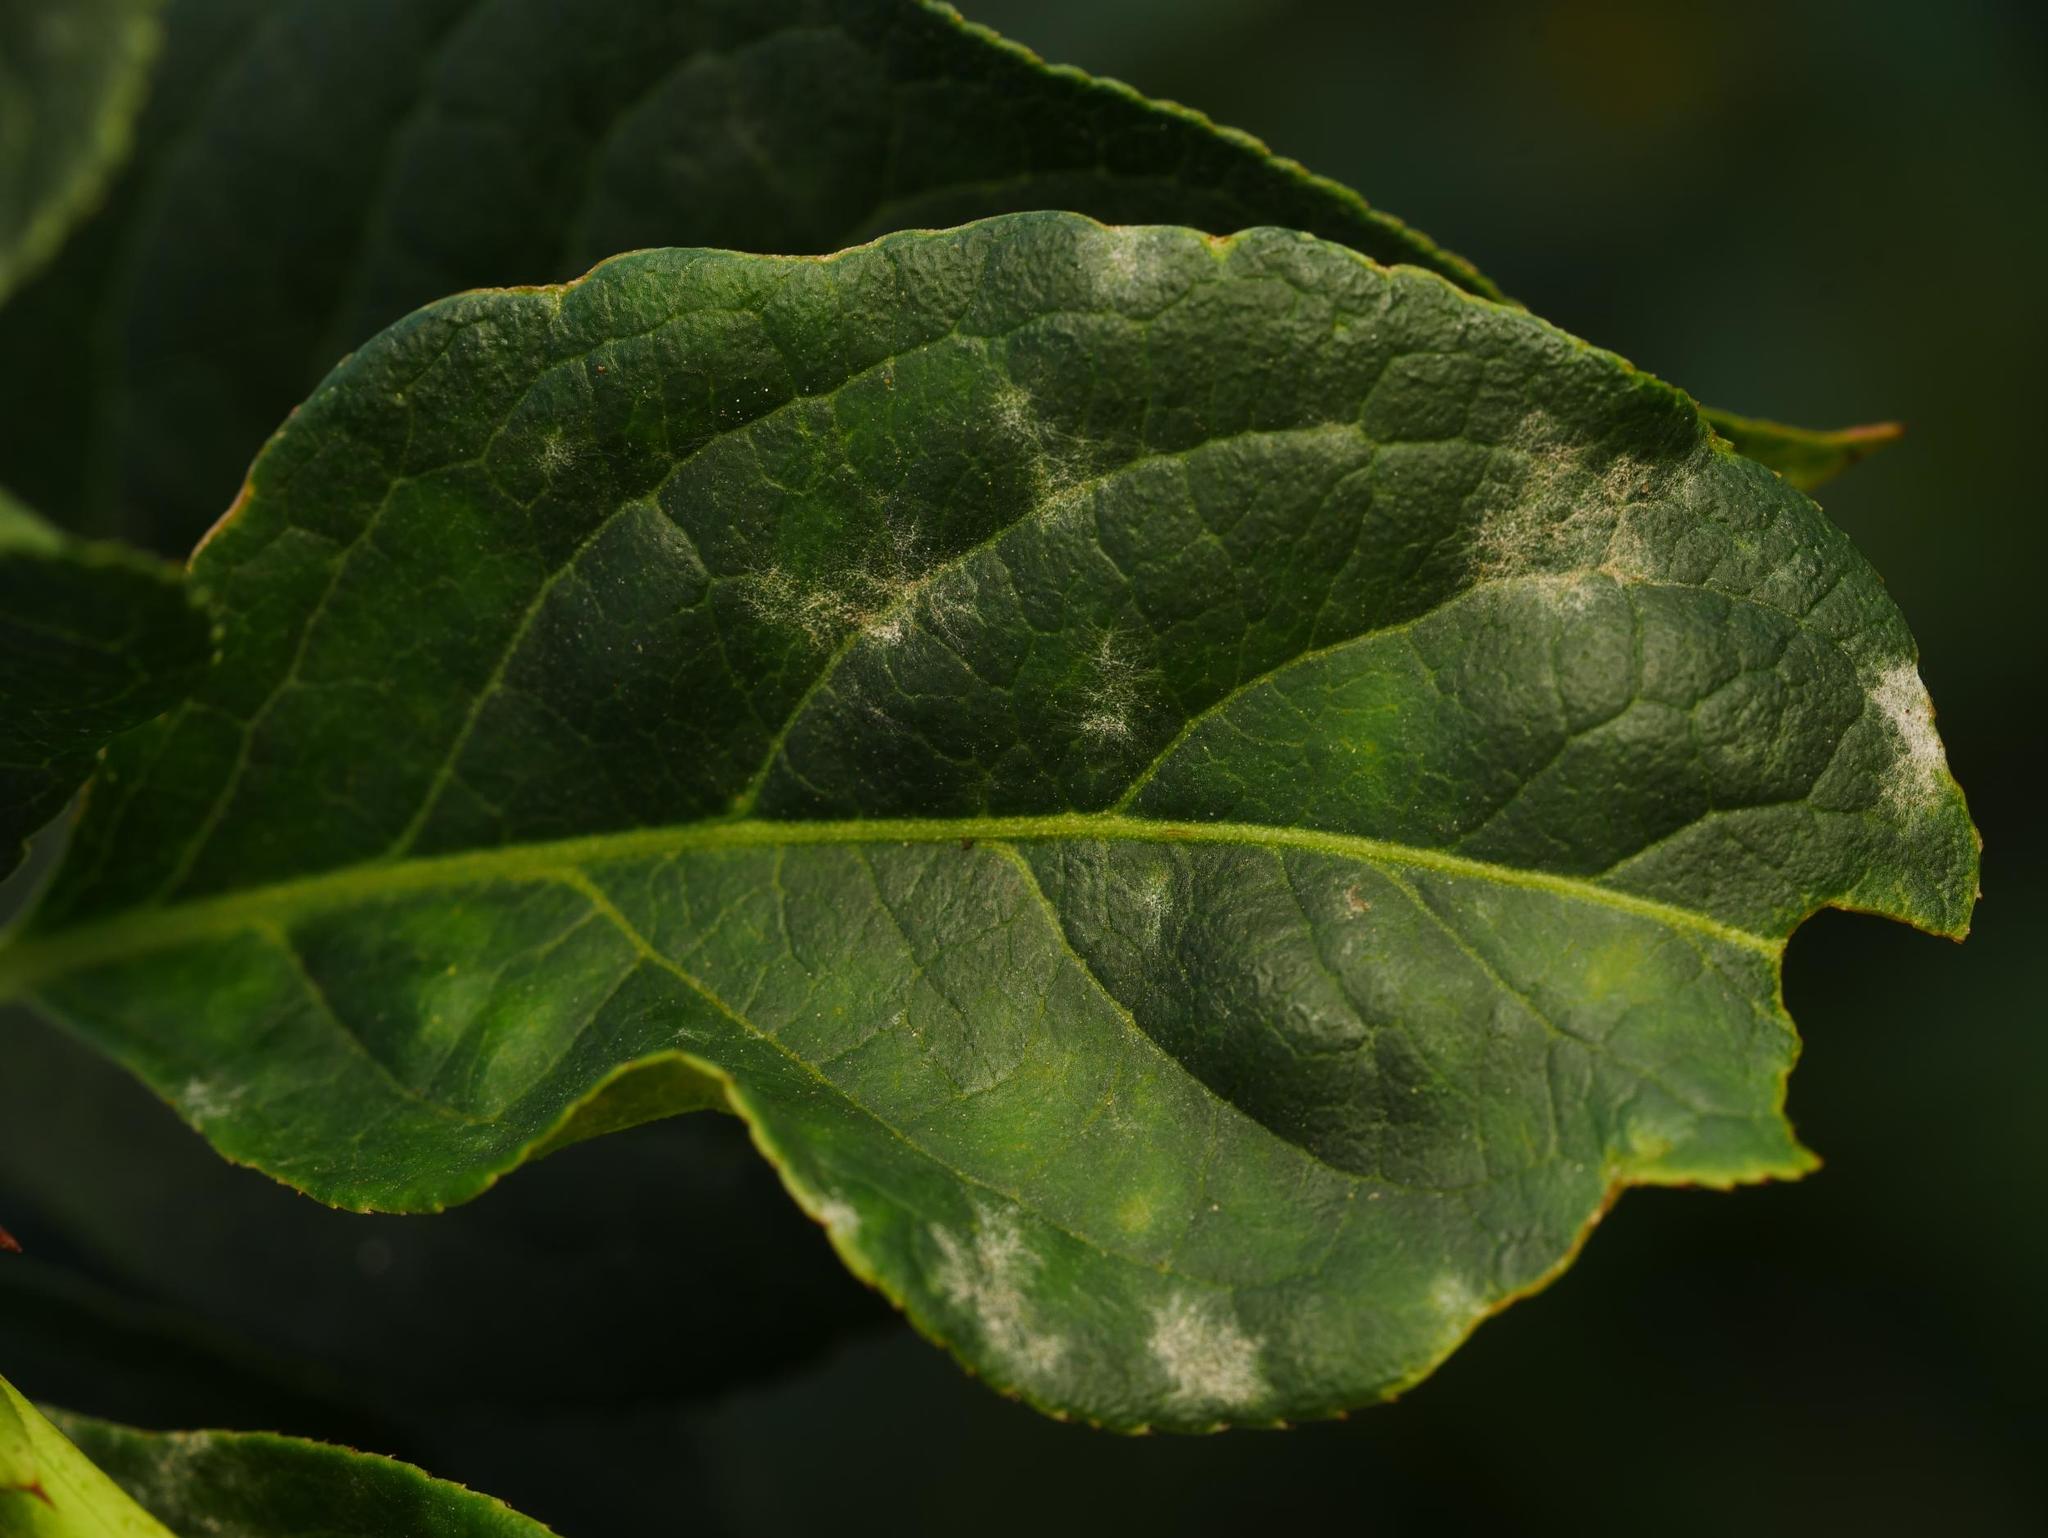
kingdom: Fungi
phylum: Ascomycota
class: Leotiomycetes
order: Helotiales
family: Erysiphaceae
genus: Erysiphe
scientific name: Erysiphe euonymi
